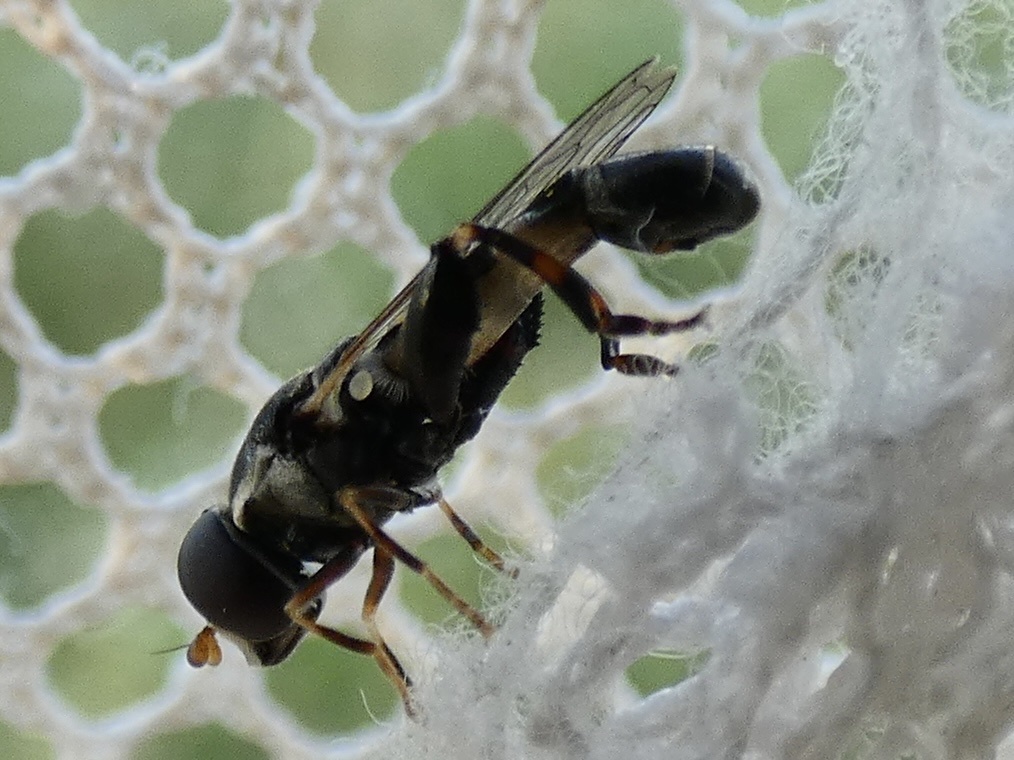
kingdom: Animalia
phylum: Arthropoda
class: Insecta
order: Diptera
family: Syrphidae
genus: Syritta
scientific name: Syritta pipiens
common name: Hover fly
